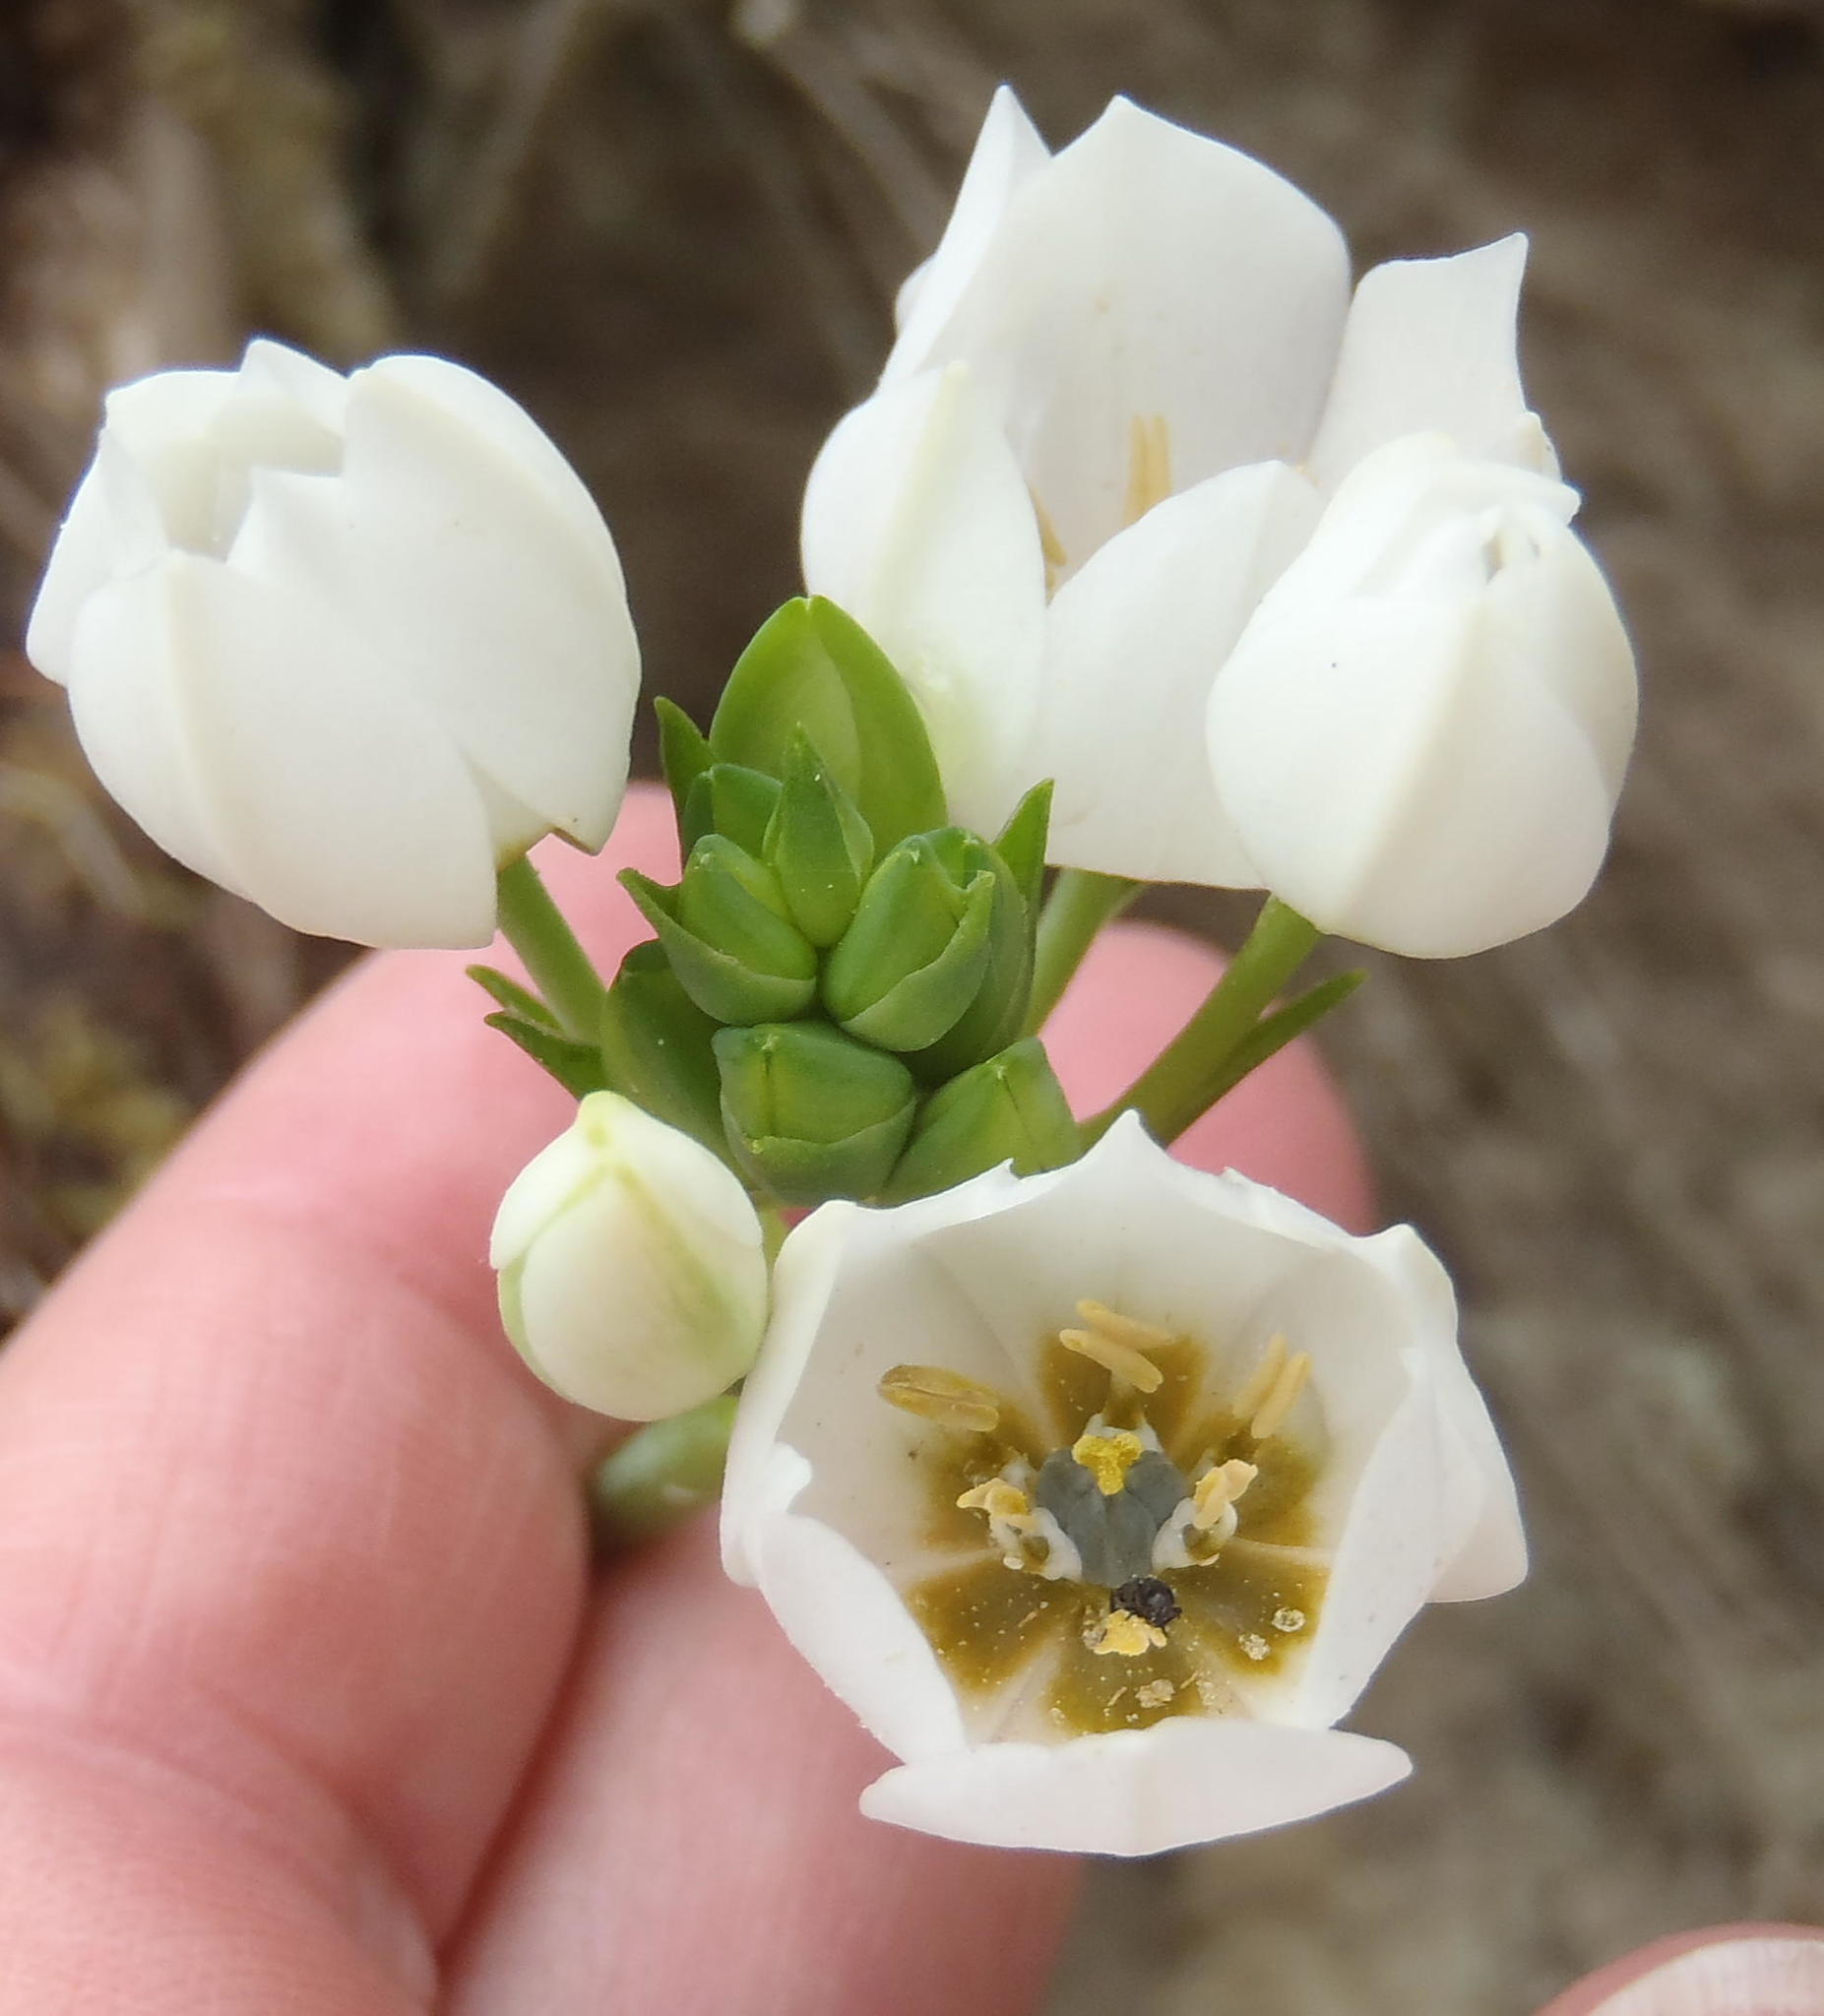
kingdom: Plantae
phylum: Tracheophyta
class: Liliopsida
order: Asparagales
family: Asparagaceae
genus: Ornithogalum
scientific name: Ornithogalum dubium
